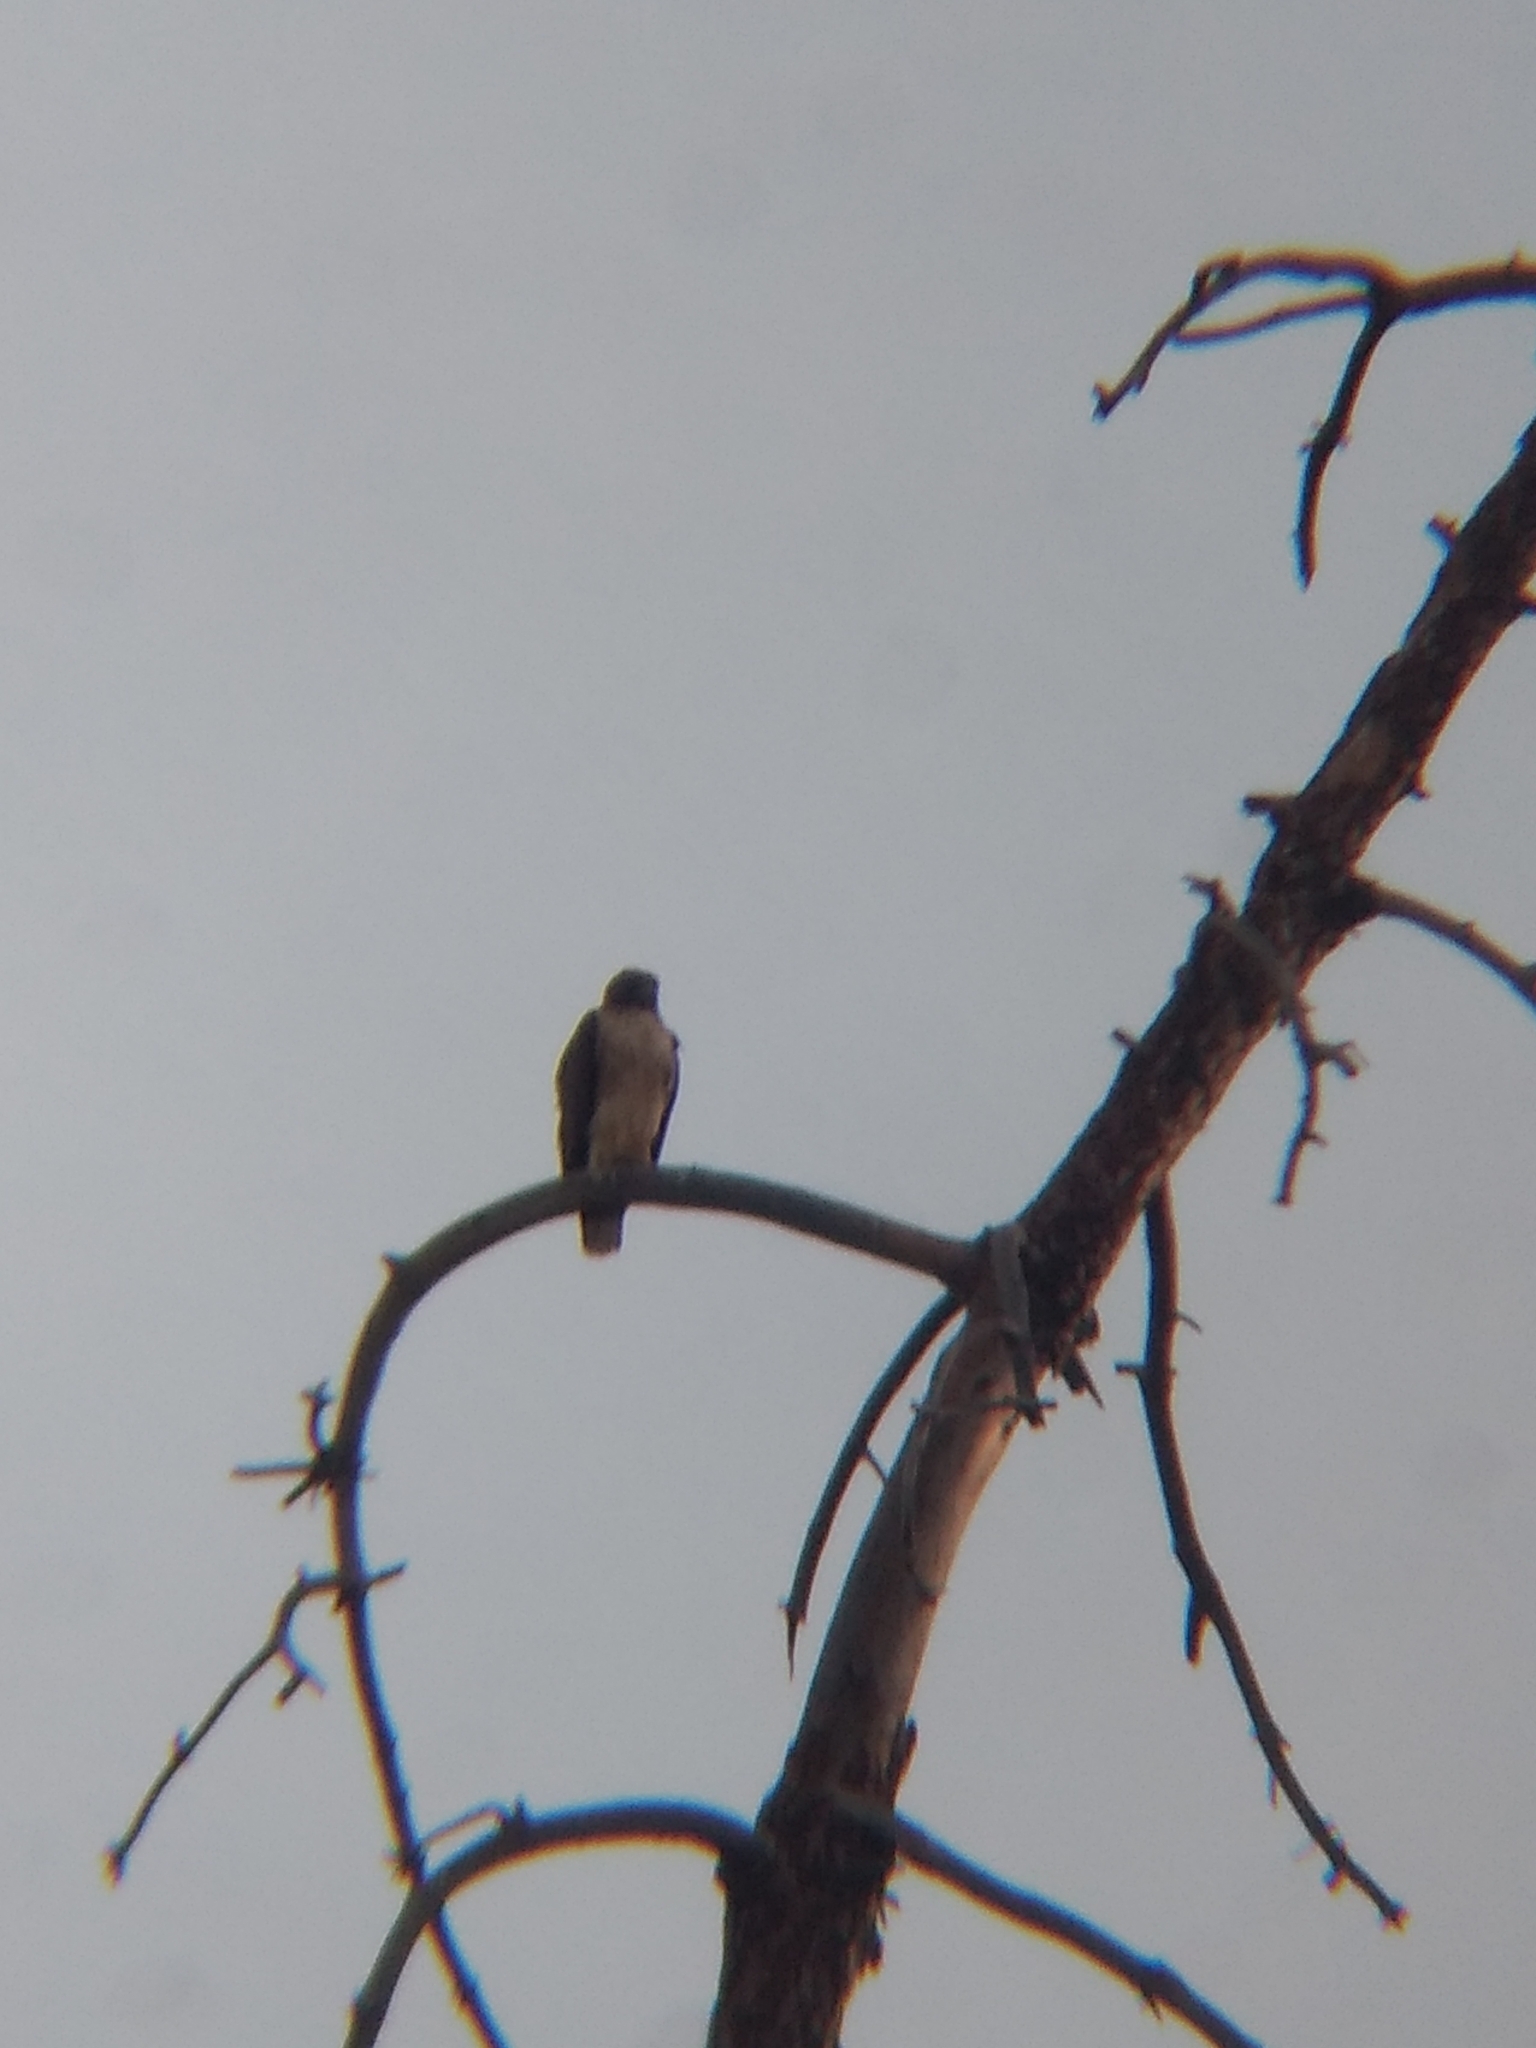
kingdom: Animalia
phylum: Chordata
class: Aves
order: Accipitriformes
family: Accipitridae
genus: Buteo
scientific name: Buteo jamaicensis
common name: Red-tailed hawk
